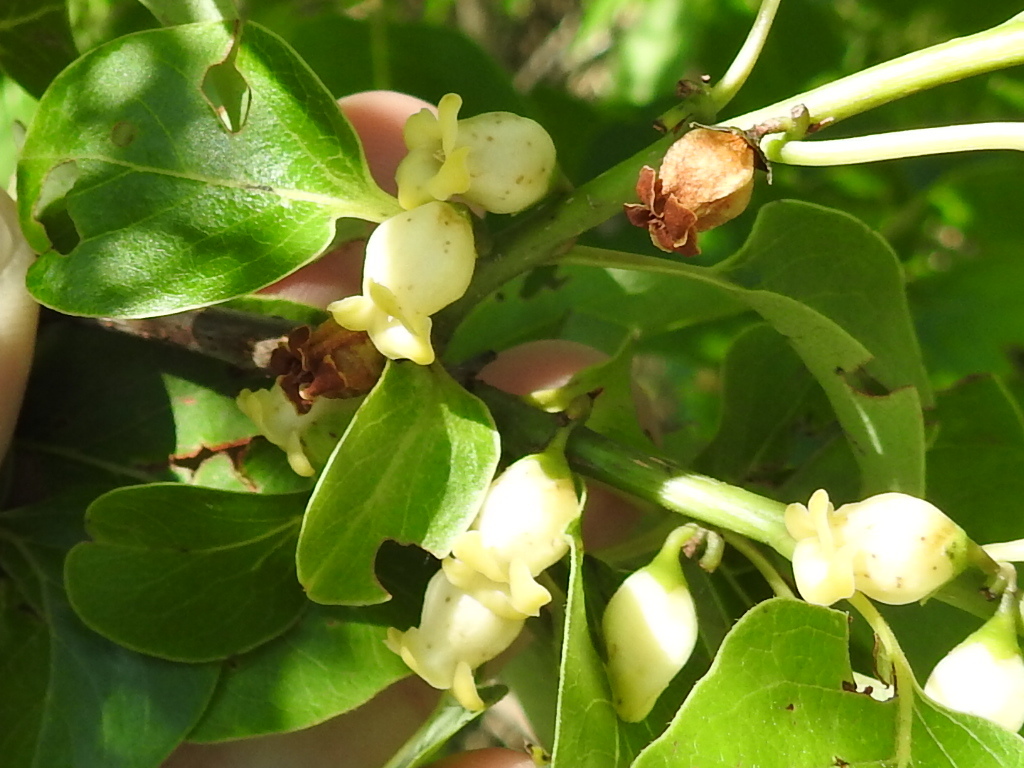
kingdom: Plantae
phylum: Tracheophyta
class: Magnoliopsida
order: Ericales
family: Ebenaceae
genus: Diospyros
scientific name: Diospyros virginiana
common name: Persimmon
